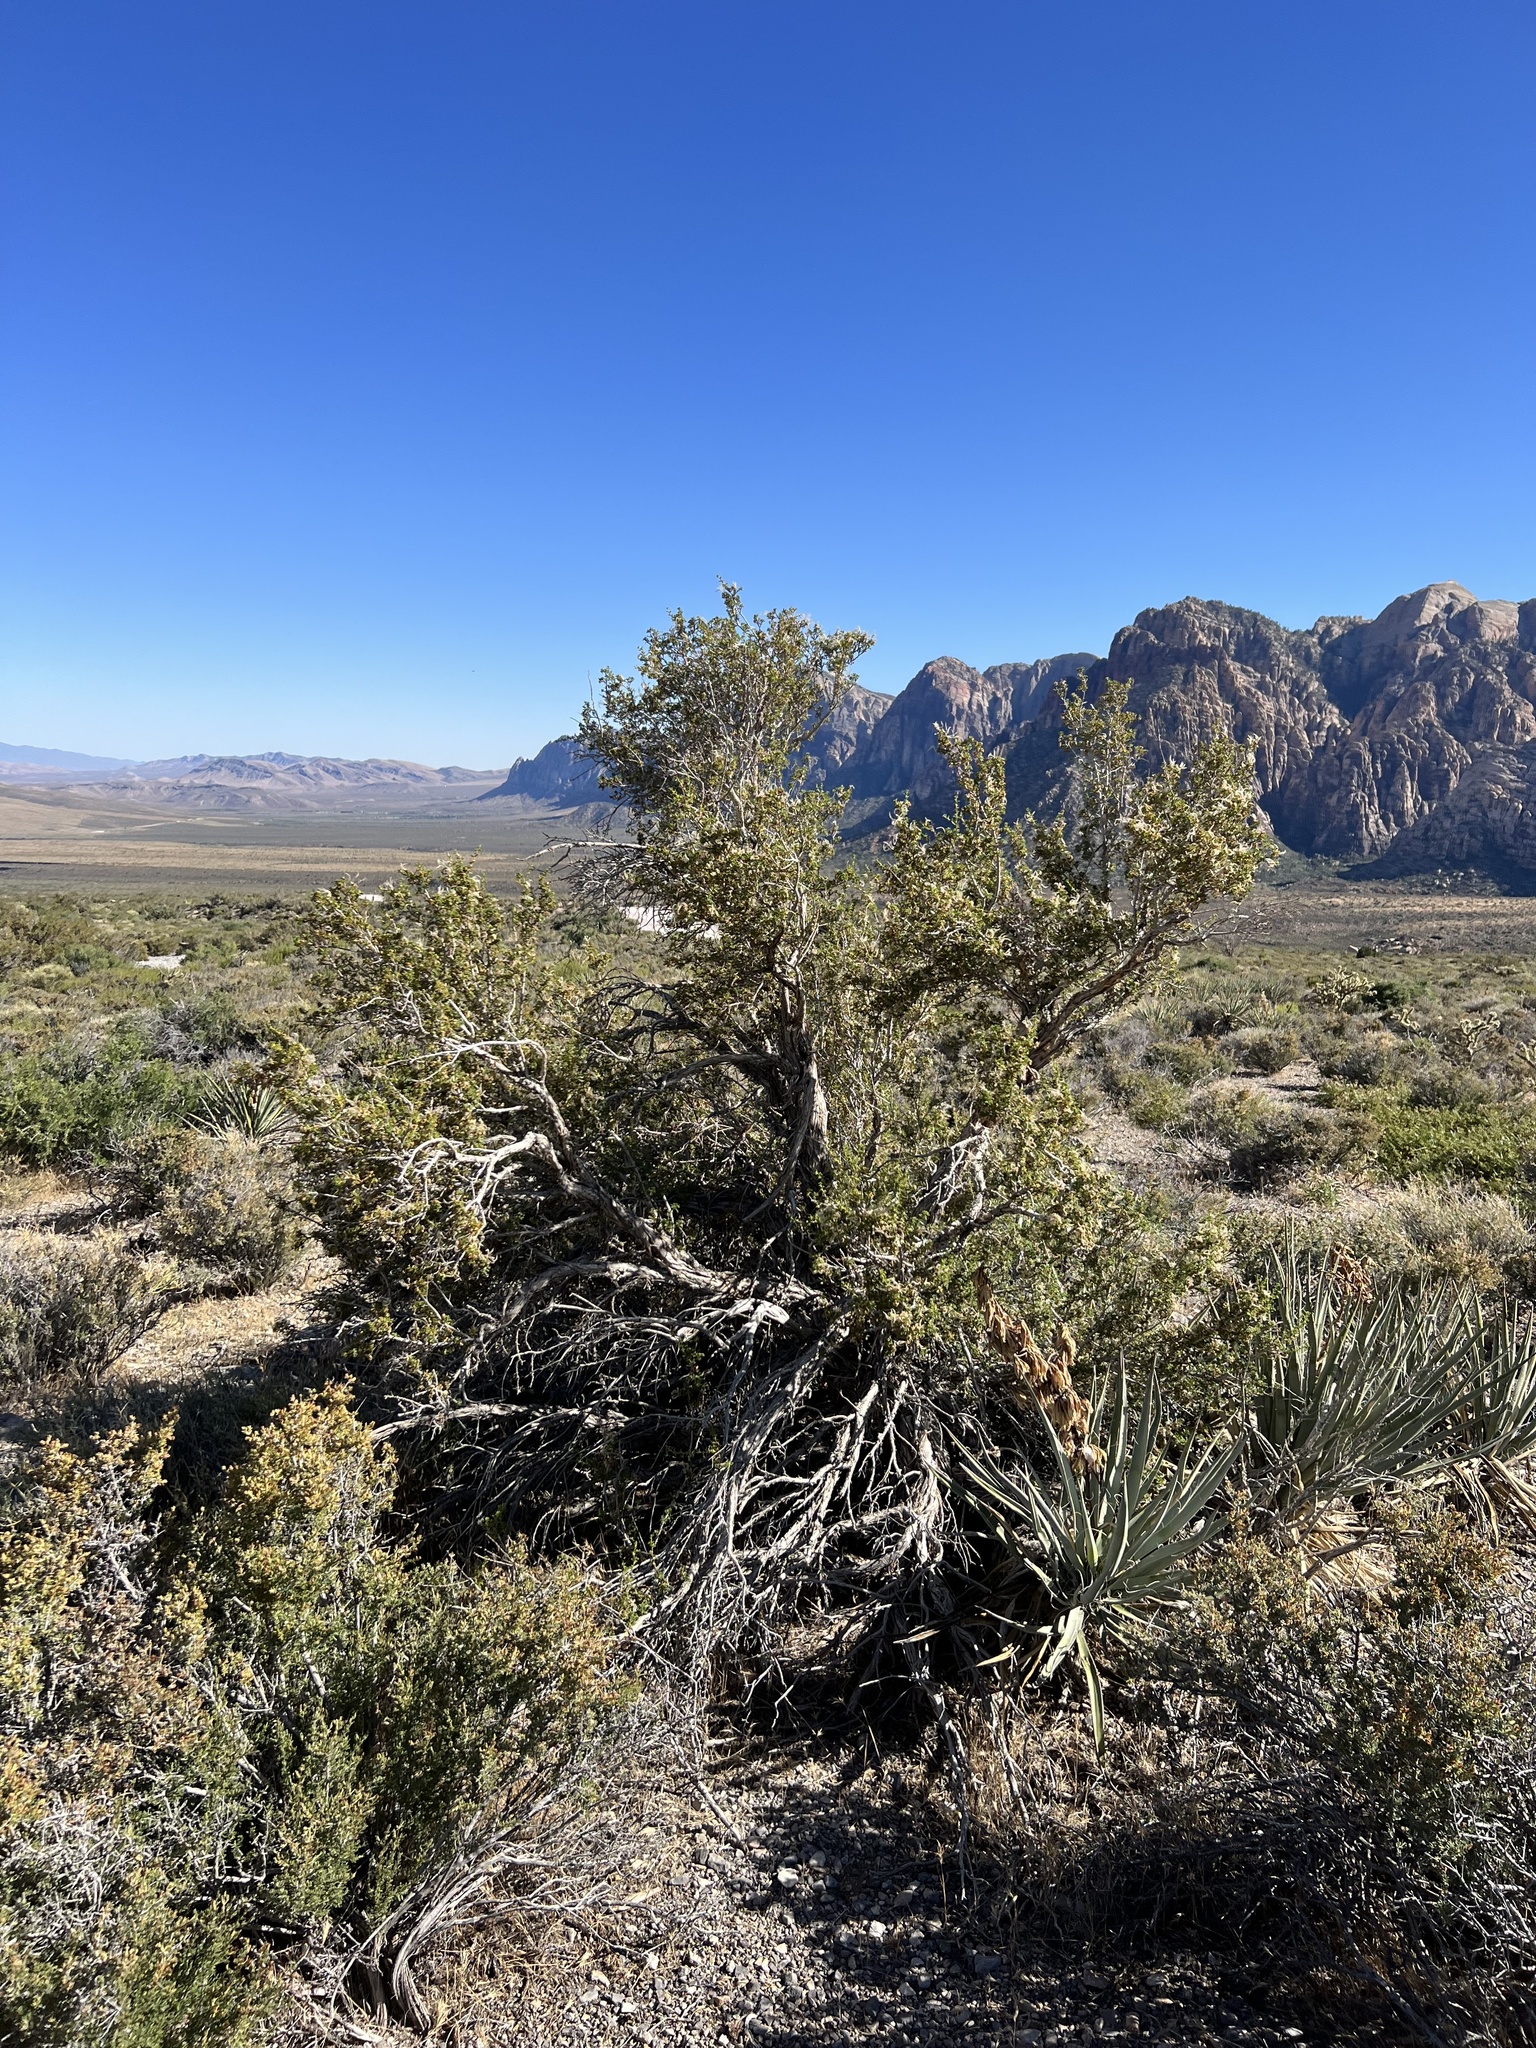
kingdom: Plantae
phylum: Tracheophyta
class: Magnoliopsida
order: Rosales
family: Rosaceae
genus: Purshia
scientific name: Purshia stansburiana
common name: Stansbury's cliffrose
